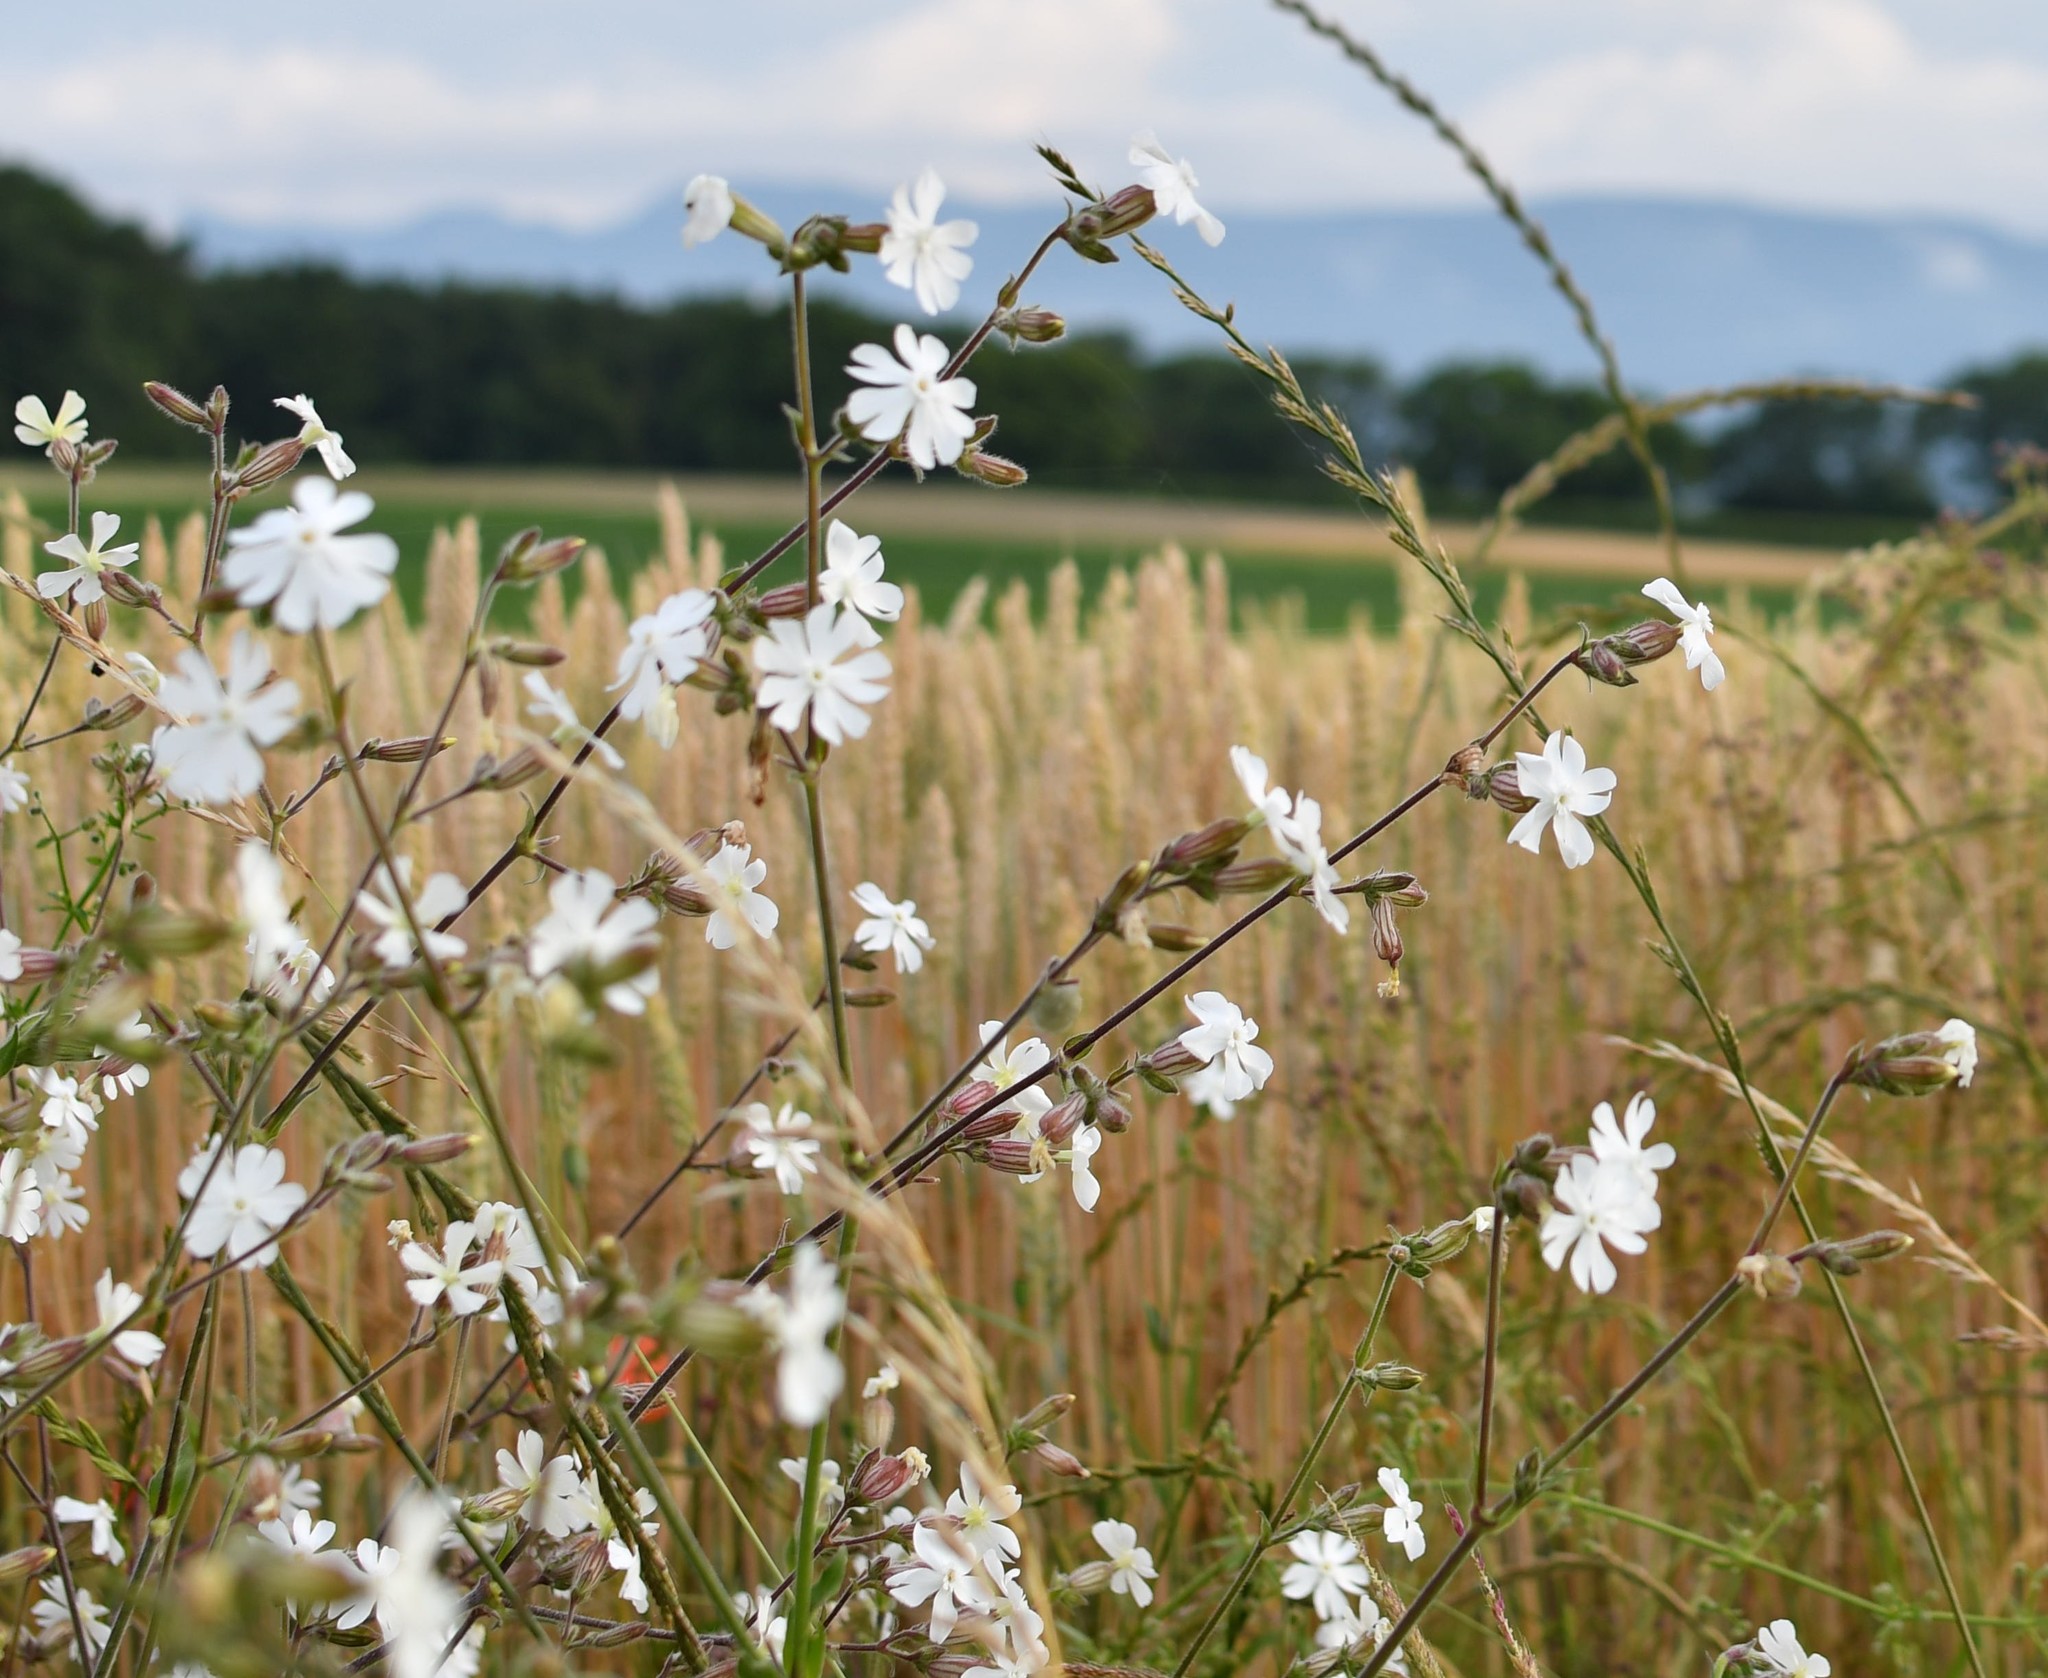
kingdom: Plantae
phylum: Tracheophyta
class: Magnoliopsida
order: Caryophyllales
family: Caryophyllaceae
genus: Silene
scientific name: Silene latifolia
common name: White campion
